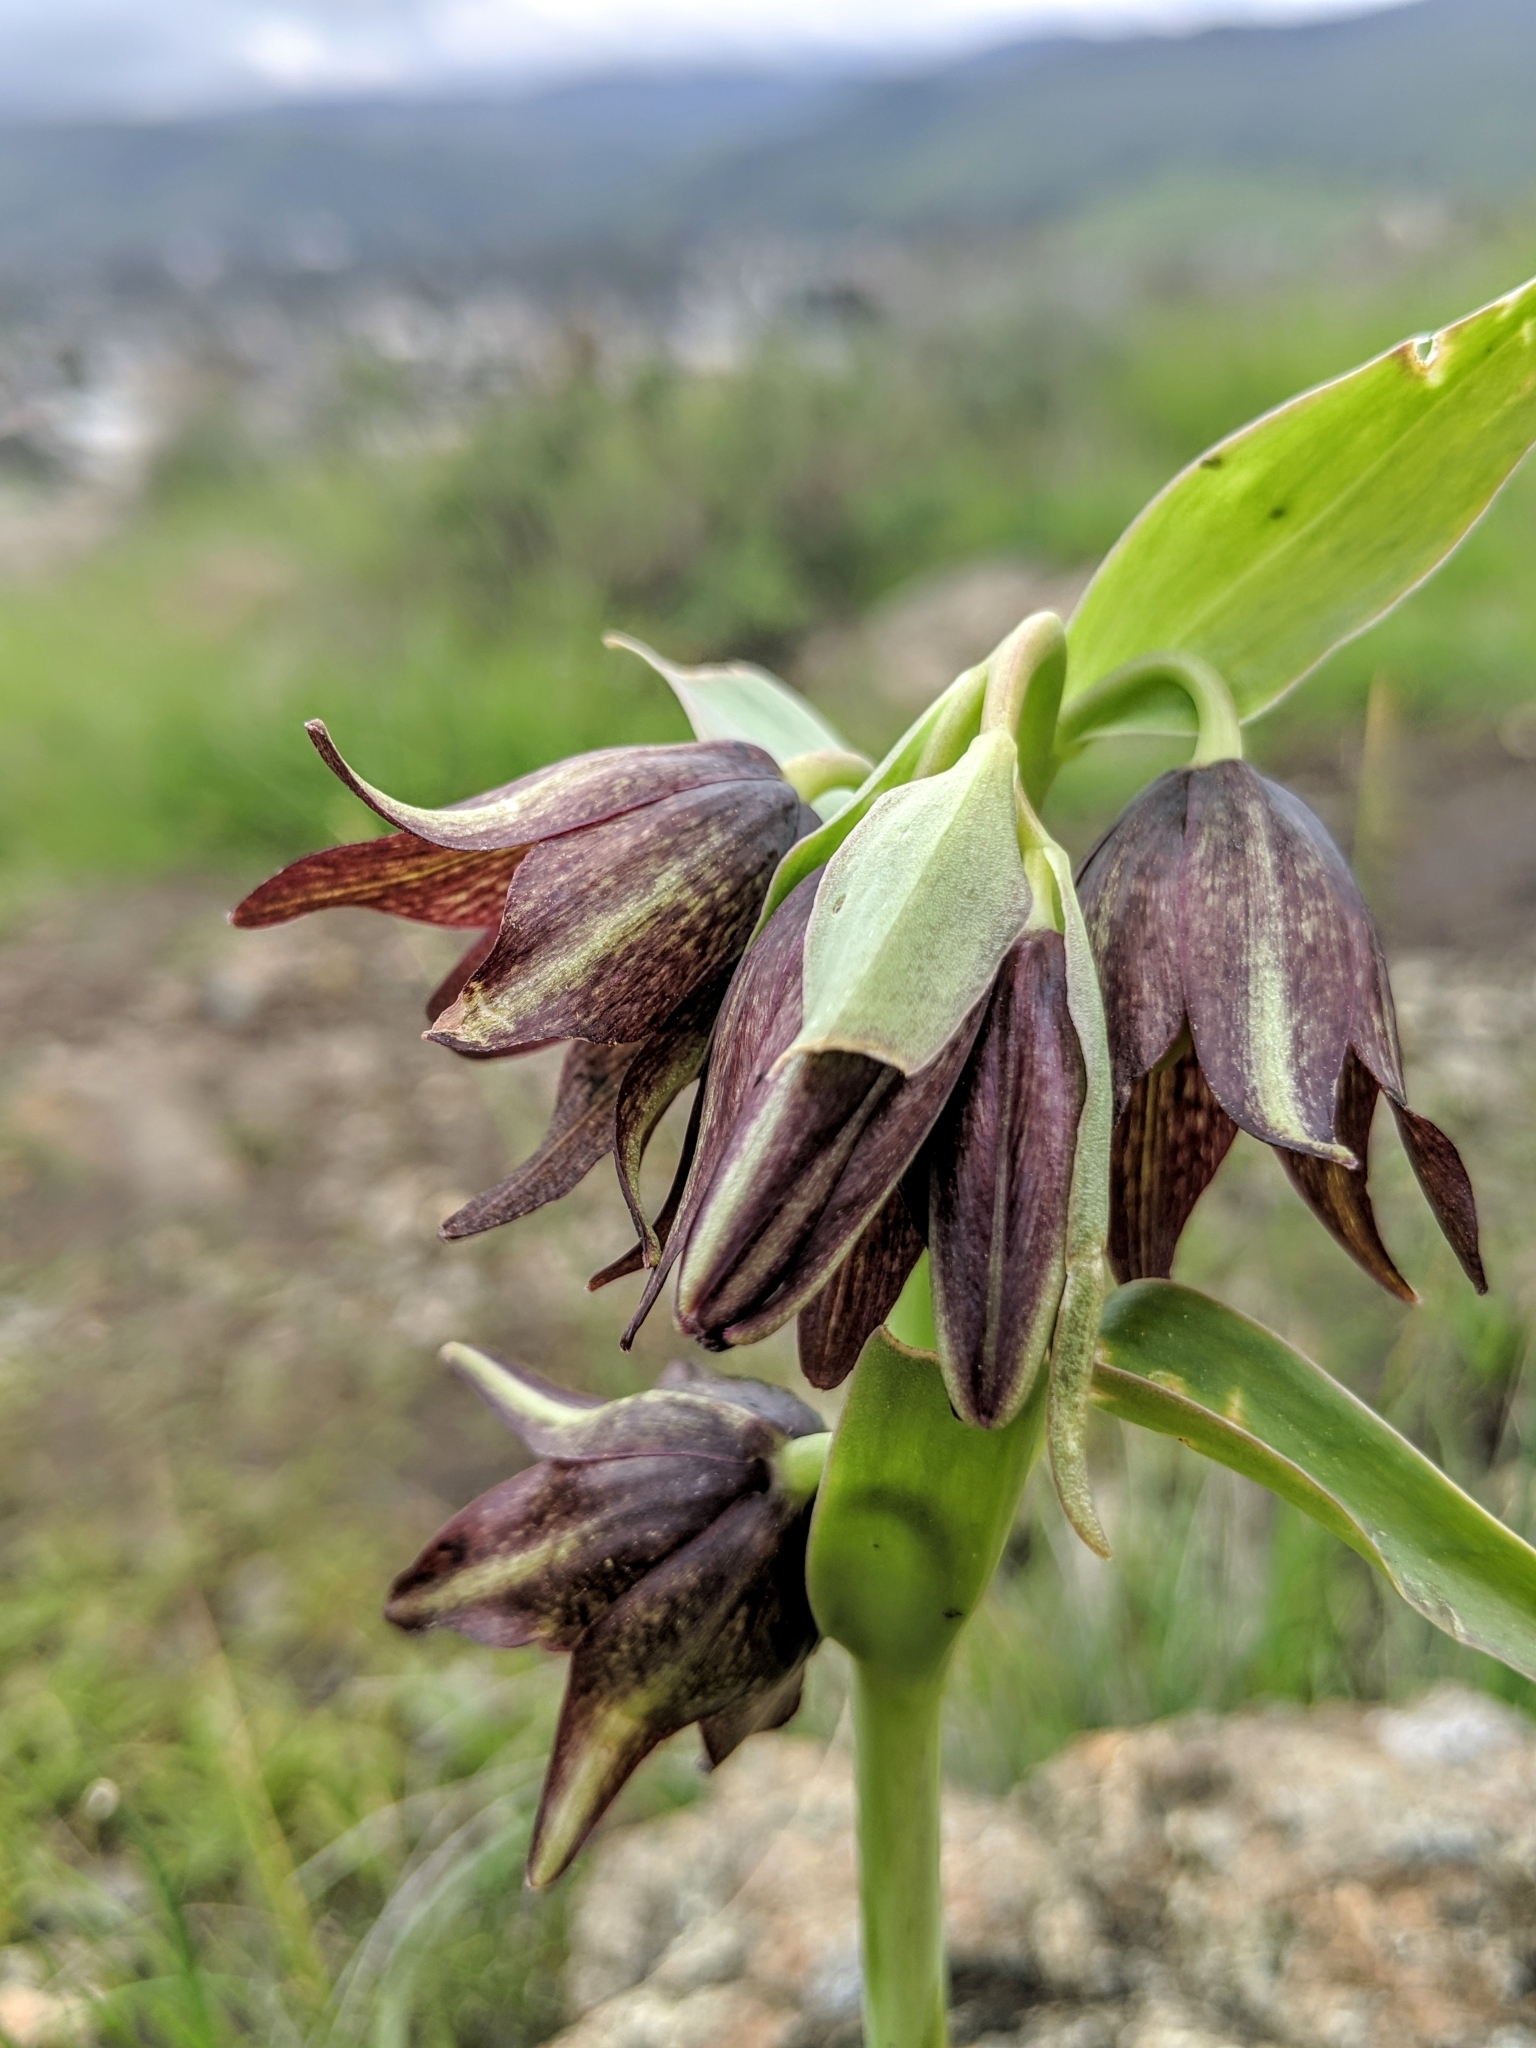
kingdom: Plantae
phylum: Tracheophyta
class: Liliopsida
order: Liliales
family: Liliaceae
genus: Fritillaria
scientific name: Fritillaria biflora
